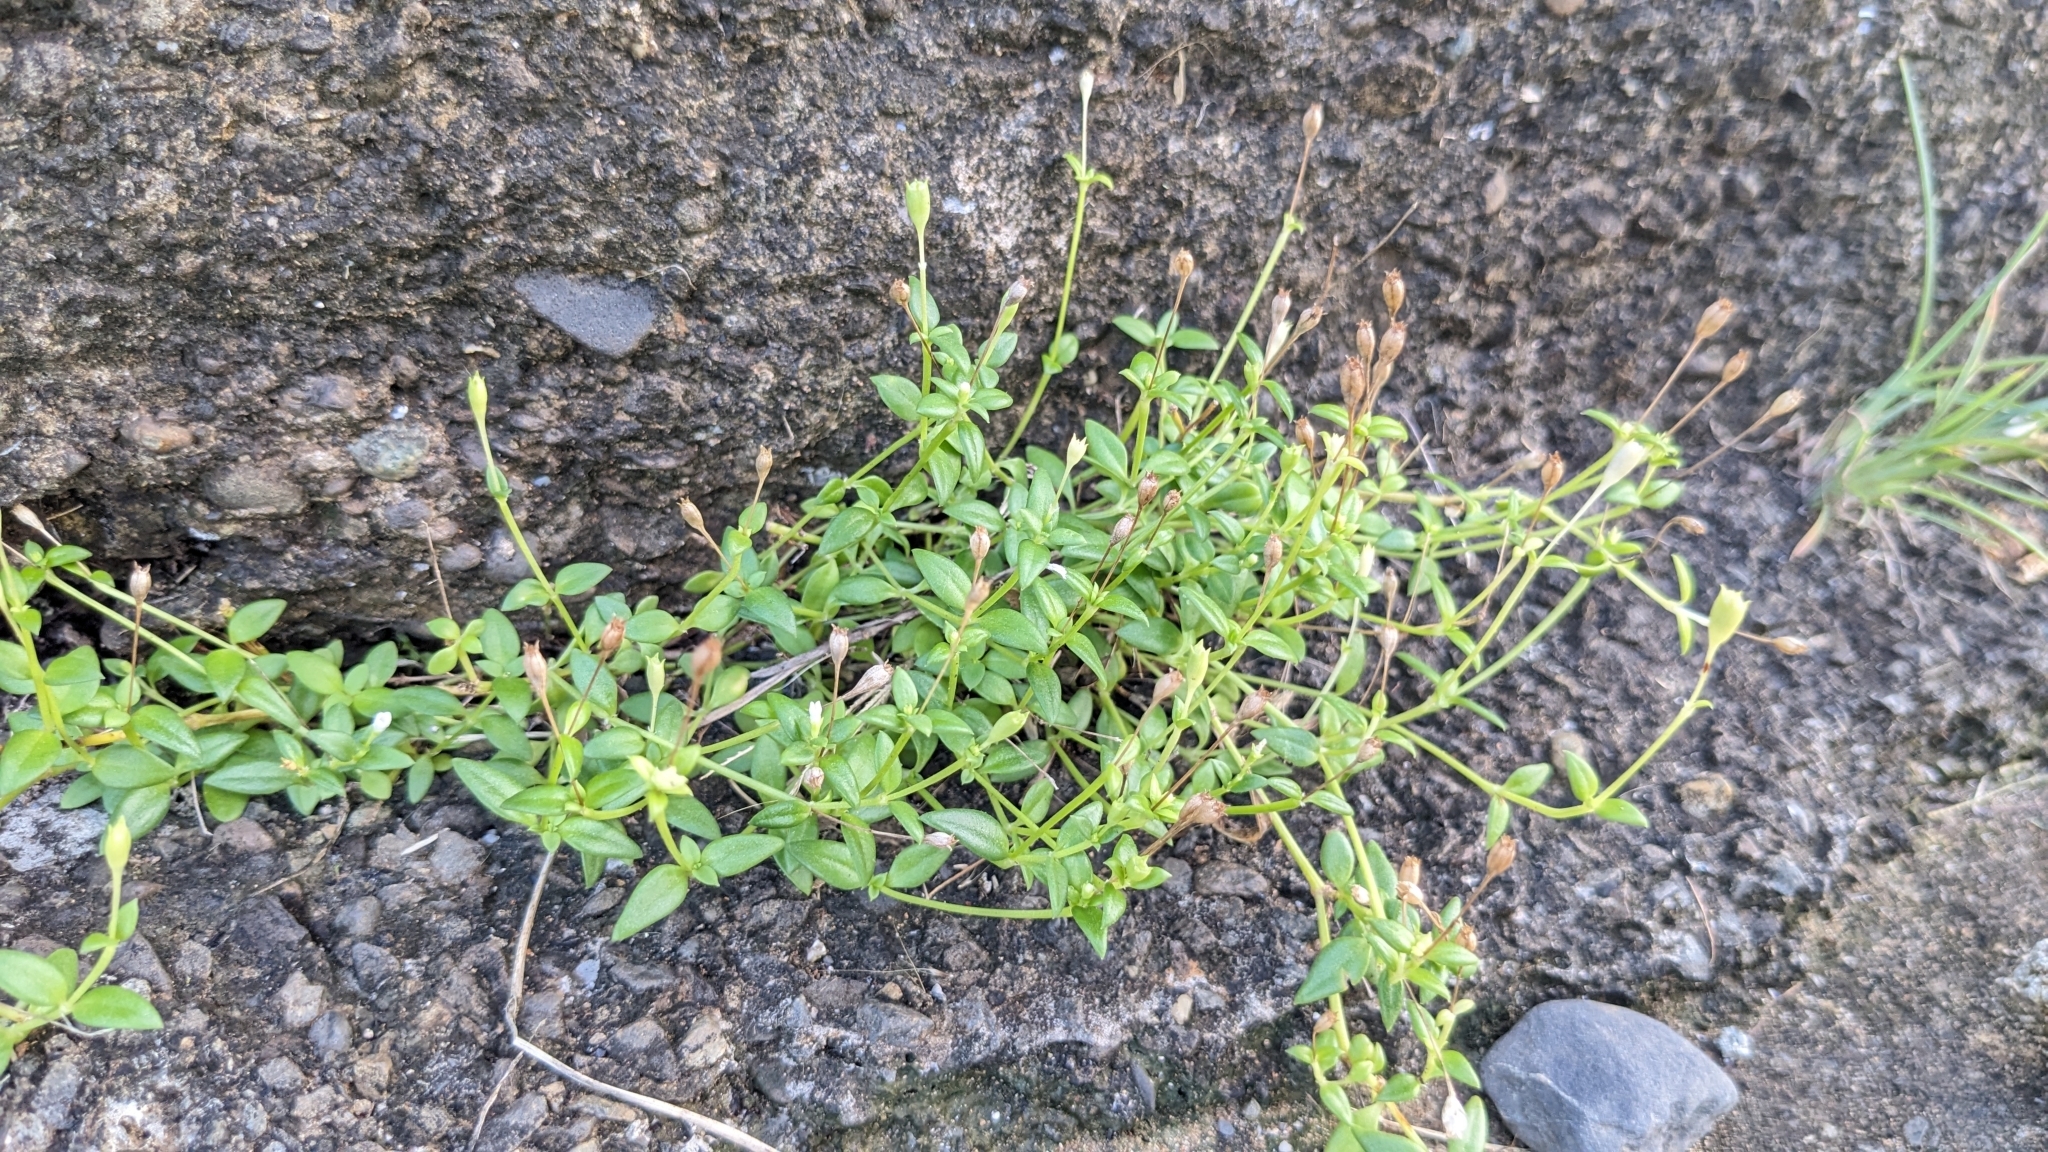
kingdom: Plantae
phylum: Tracheophyta
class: Magnoliopsida
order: Gentianales
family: Rubiaceae
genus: Leptopetalum
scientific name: Leptopetalum taiwanense
